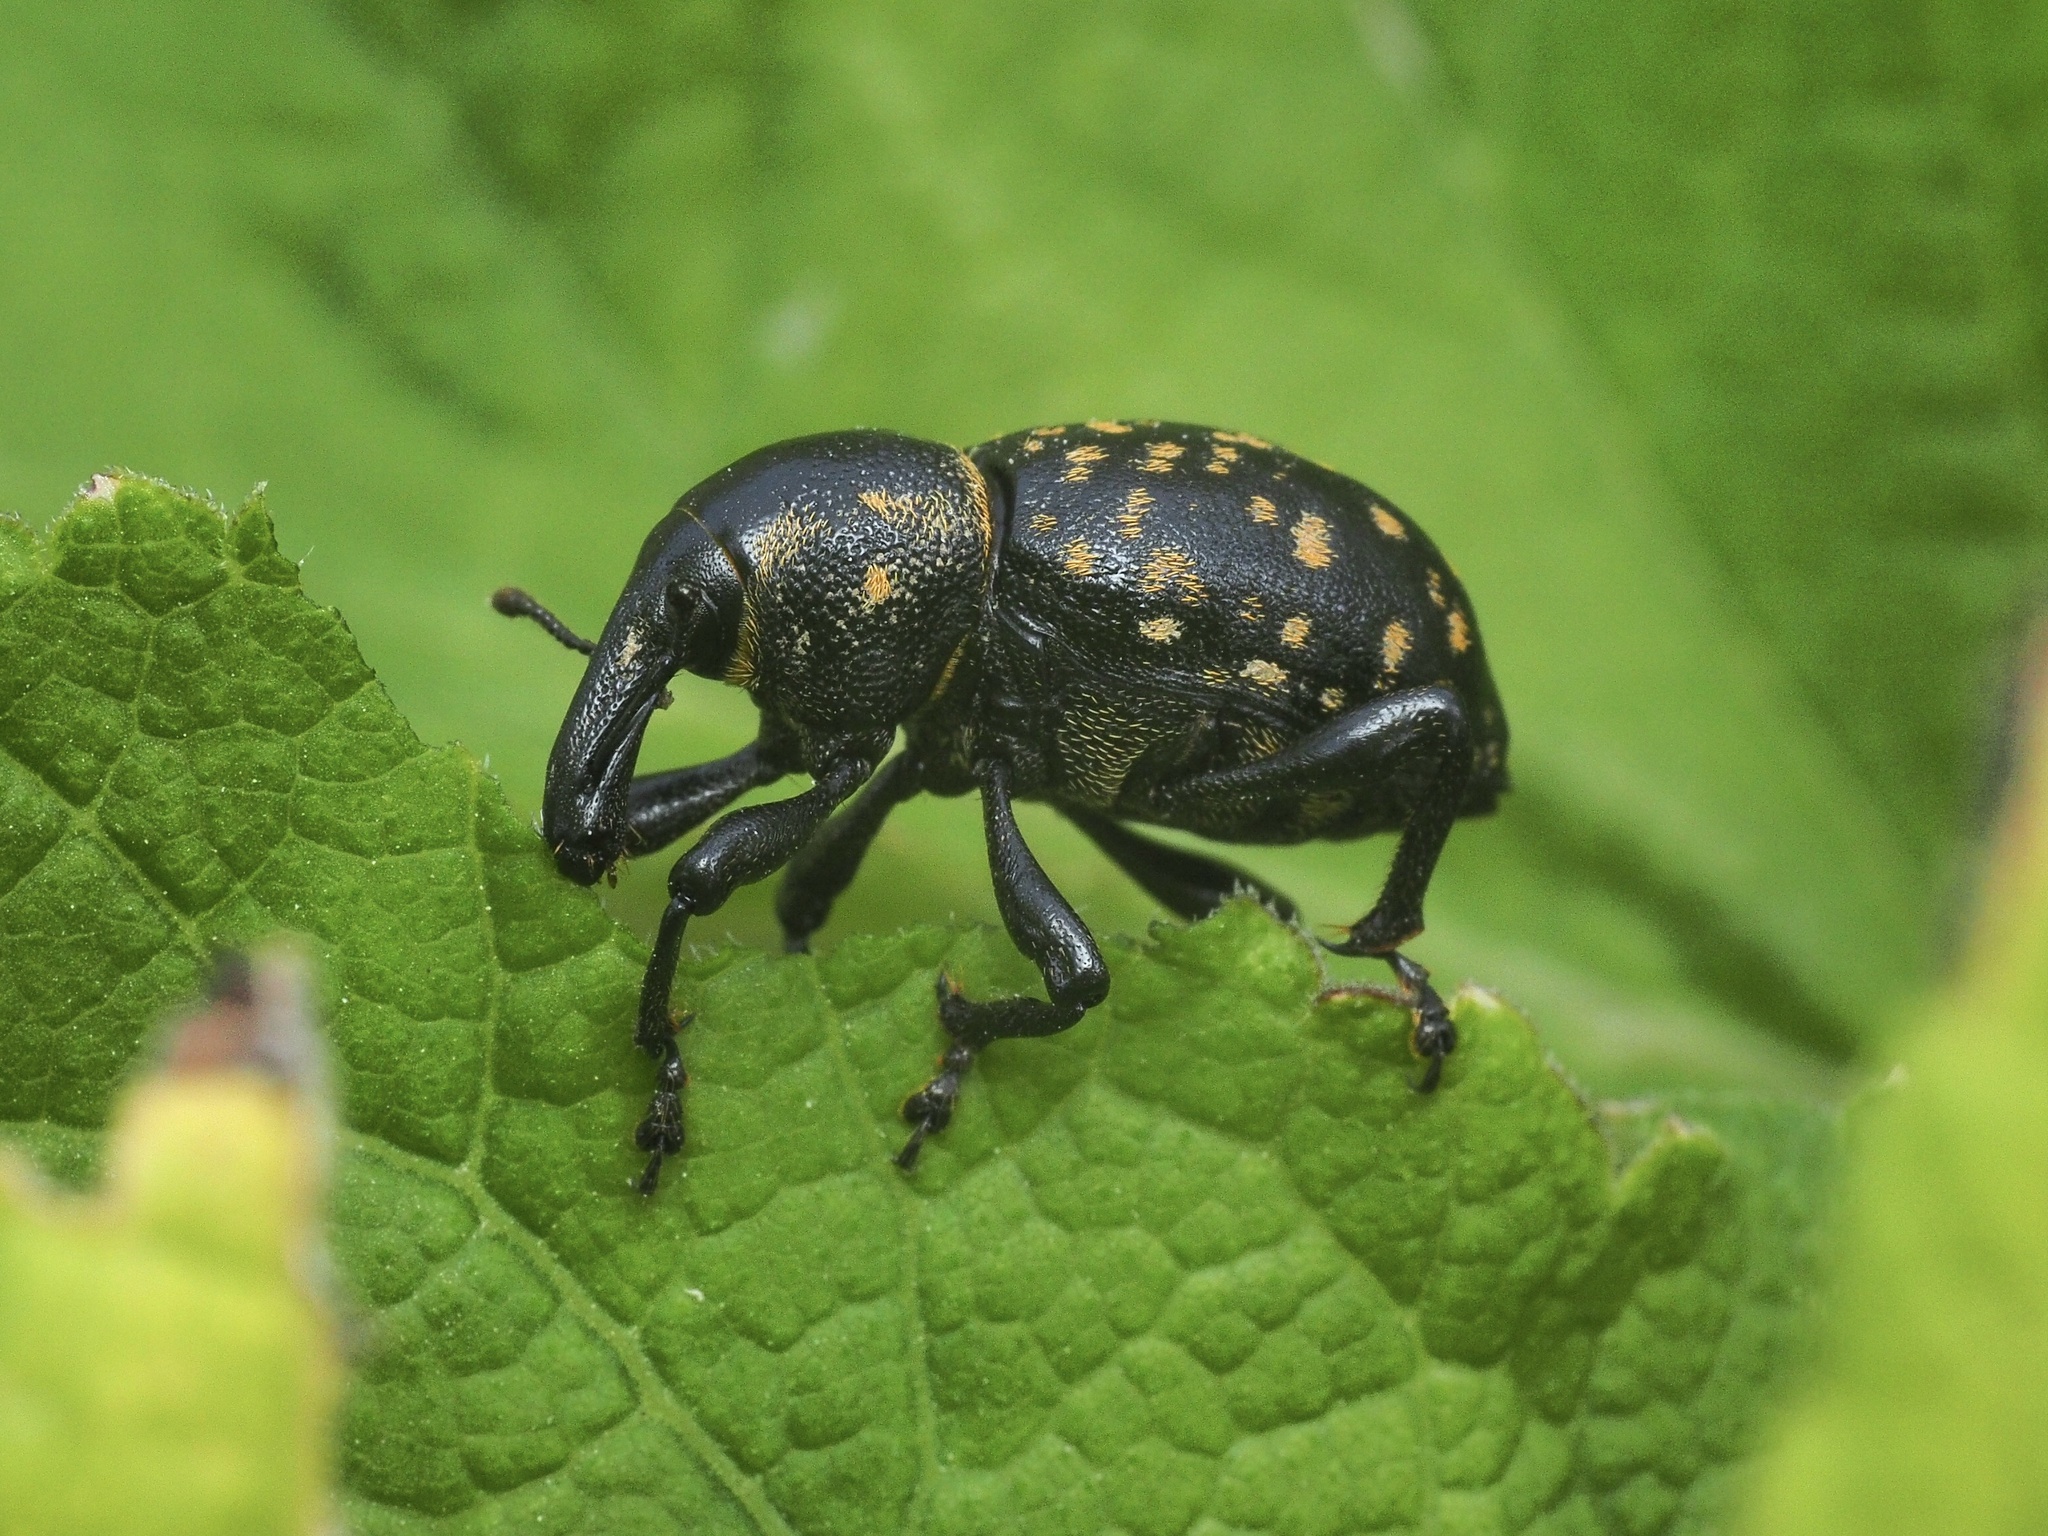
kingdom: Animalia
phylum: Arthropoda
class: Insecta
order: Coleoptera
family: Curculionidae
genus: Liparus
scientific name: Liparus germanus
